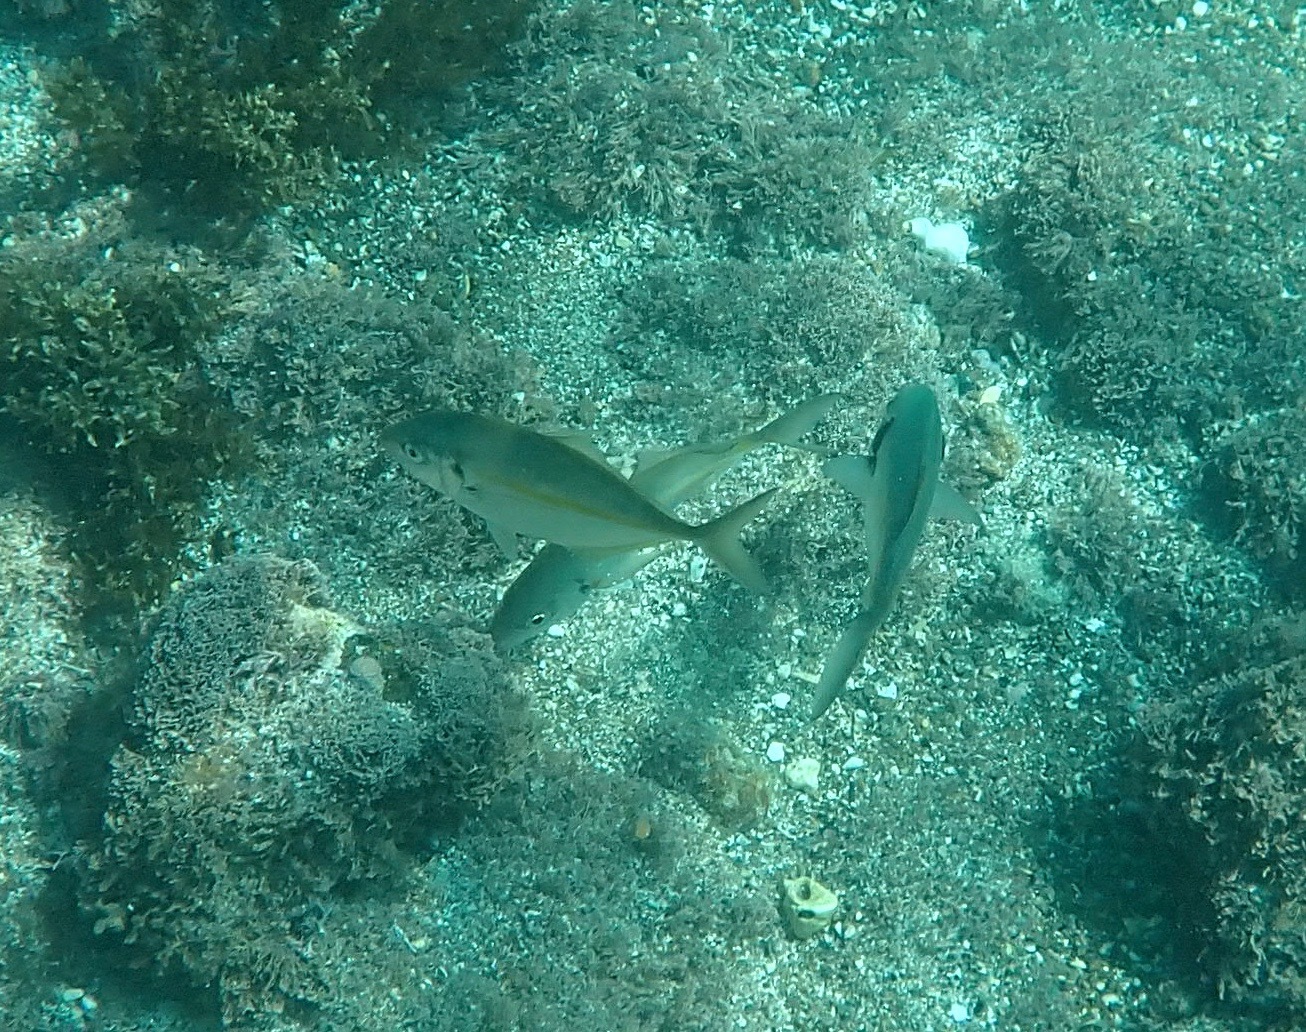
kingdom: Animalia
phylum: Chordata
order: Perciformes
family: Carangidae
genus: Pseudocaranx
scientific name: Pseudocaranx dentex
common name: White trevally
